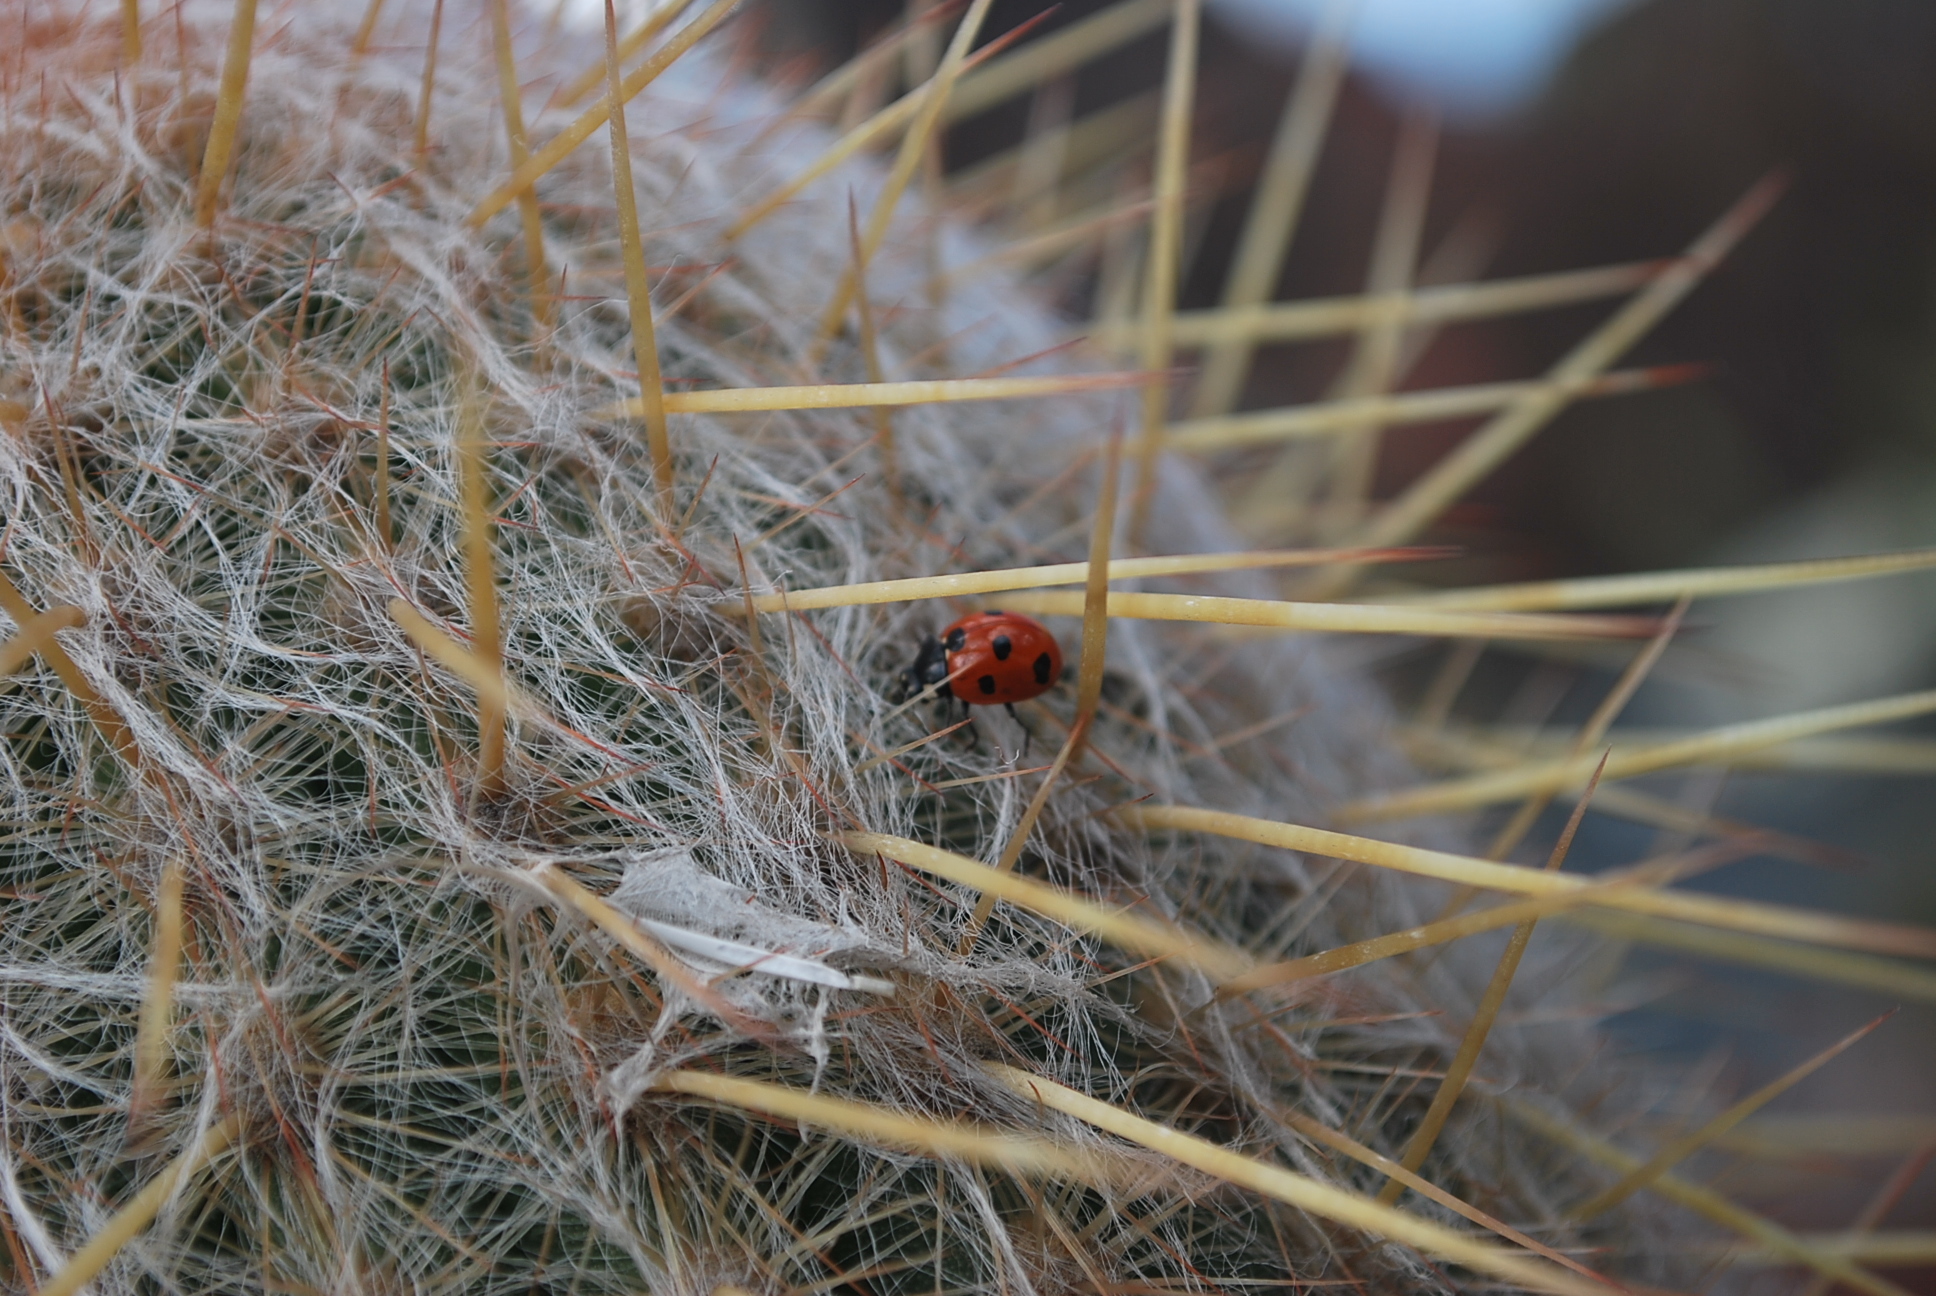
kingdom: Animalia
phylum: Arthropoda
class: Insecta
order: Coleoptera
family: Coccinellidae
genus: Coccinella
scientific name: Coccinella algerica
